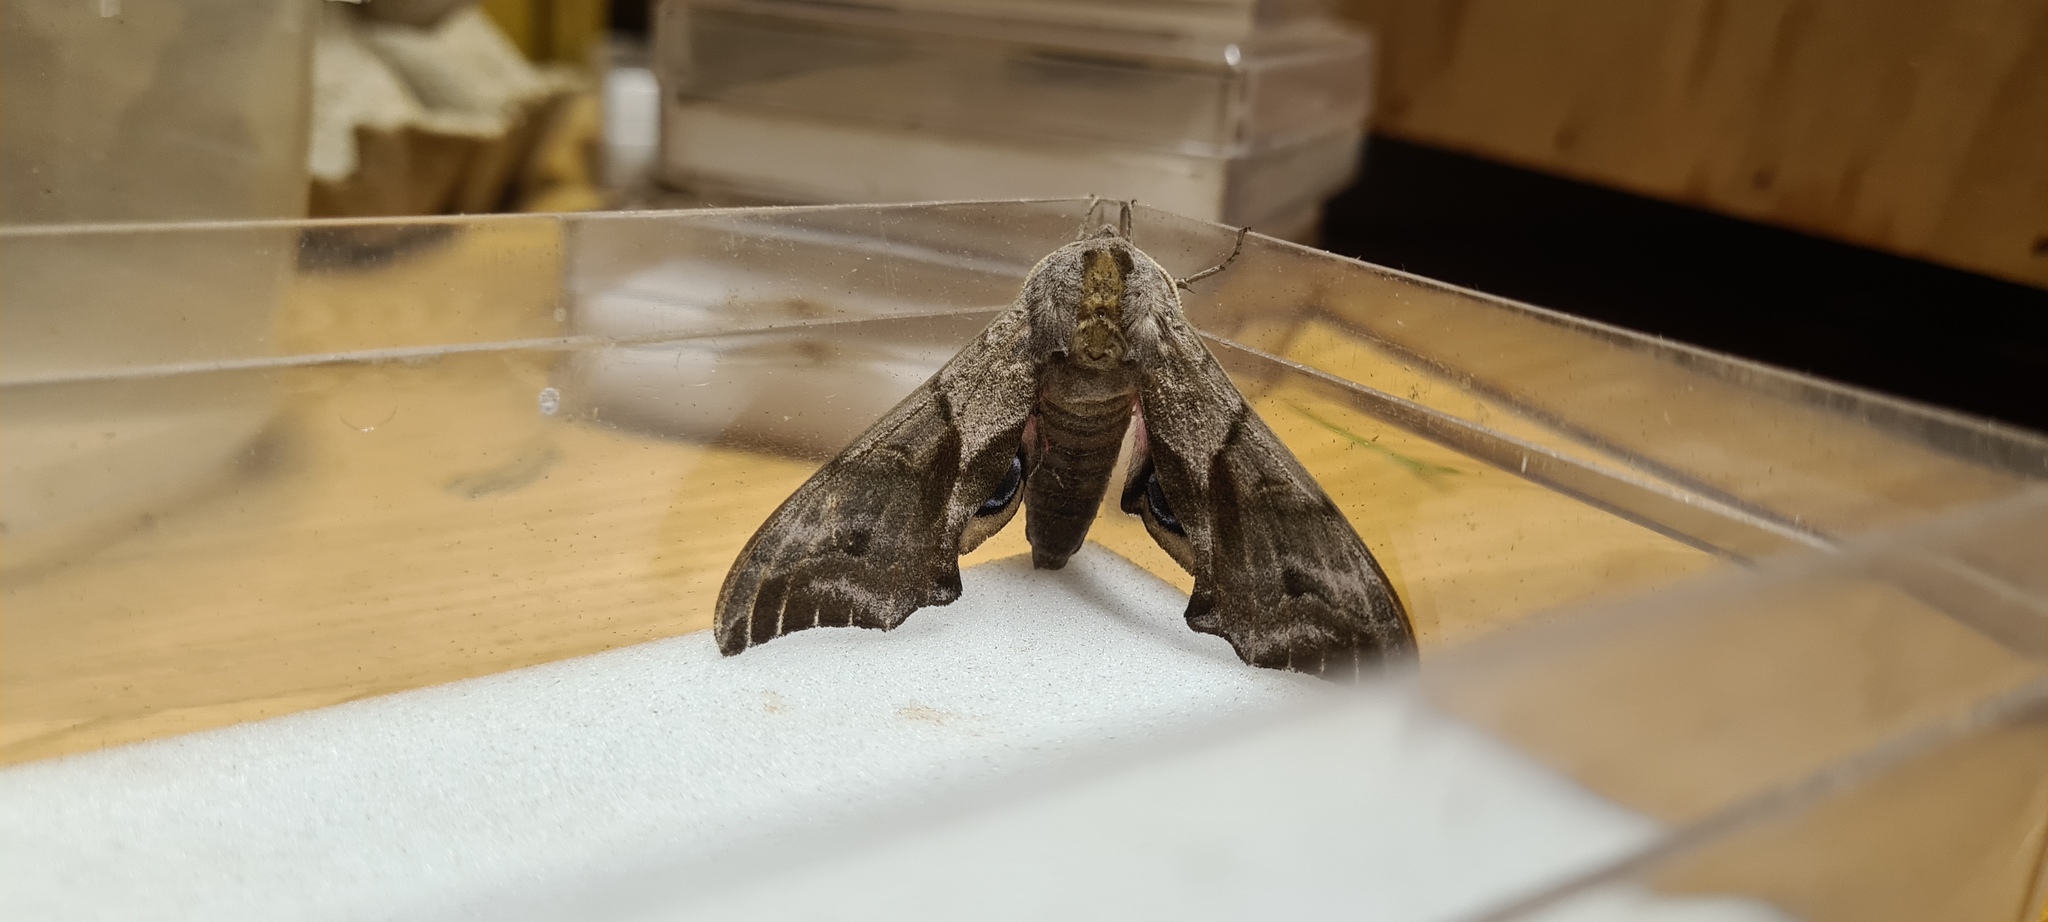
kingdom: Animalia
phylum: Arthropoda
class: Insecta
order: Lepidoptera
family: Sphingidae
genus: Smerinthus
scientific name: Smerinthus ocellata
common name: Eyed hawk-moth
